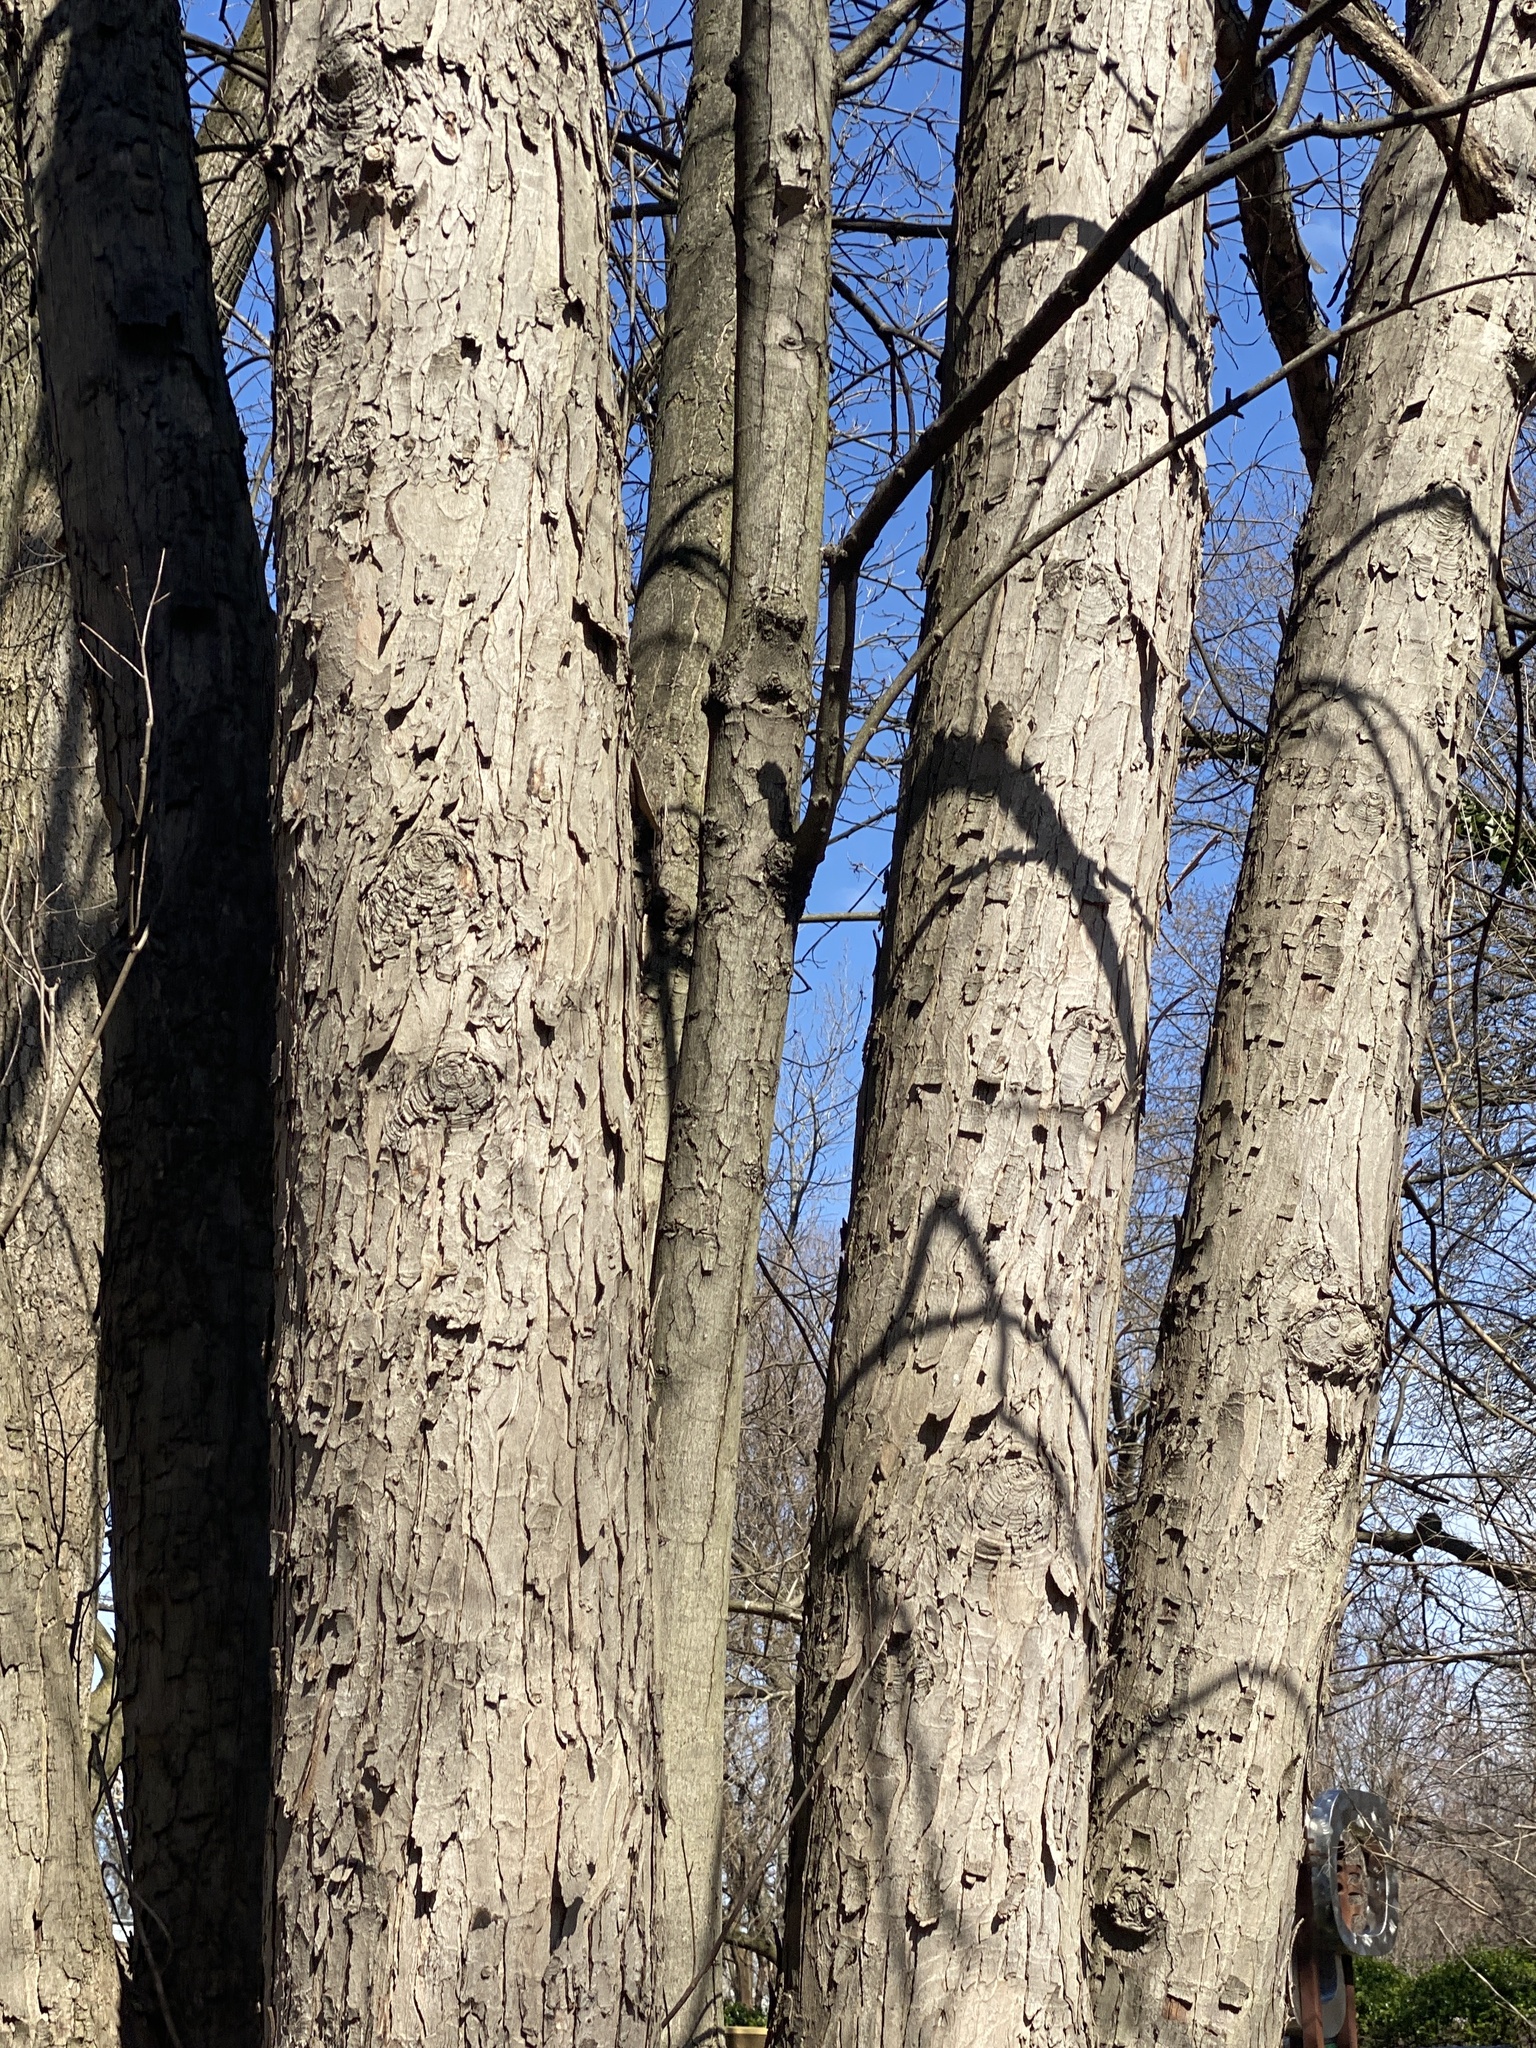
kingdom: Plantae
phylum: Tracheophyta
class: Magnoliopsida
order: Sapindales
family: Sapindaceae
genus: Acer
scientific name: Acer saccharinum
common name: Silver maple
